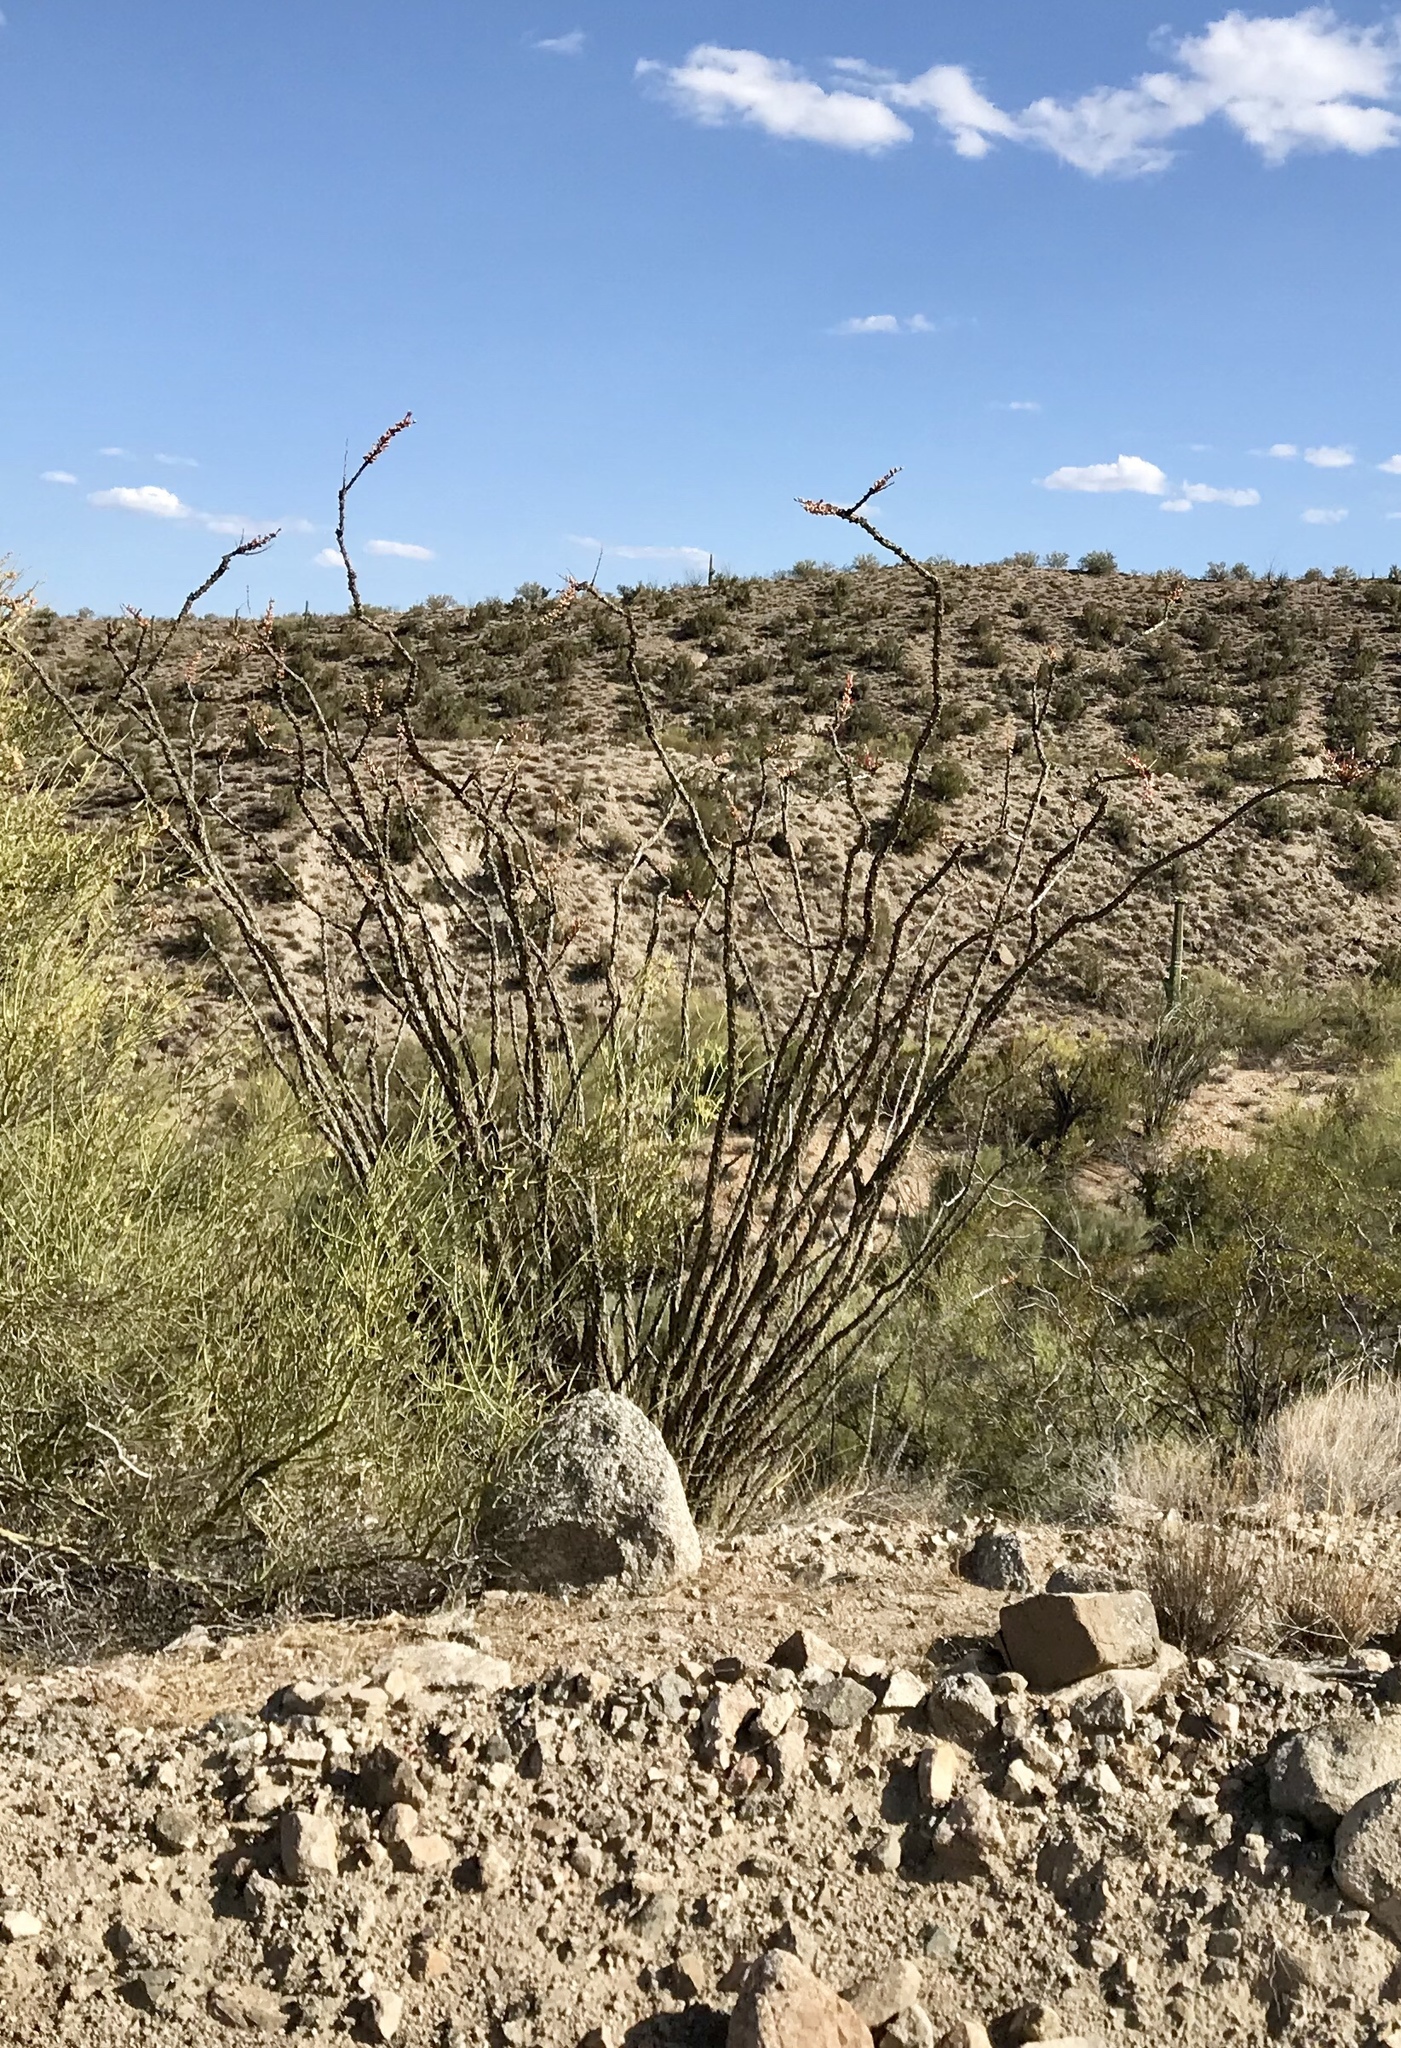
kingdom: Plantae
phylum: Tracheophyta
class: Magnoliopsida
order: Ericales
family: Fouquieriaceae
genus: Fouquieria
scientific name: Fouquieria splendens
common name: Vine-cactus
